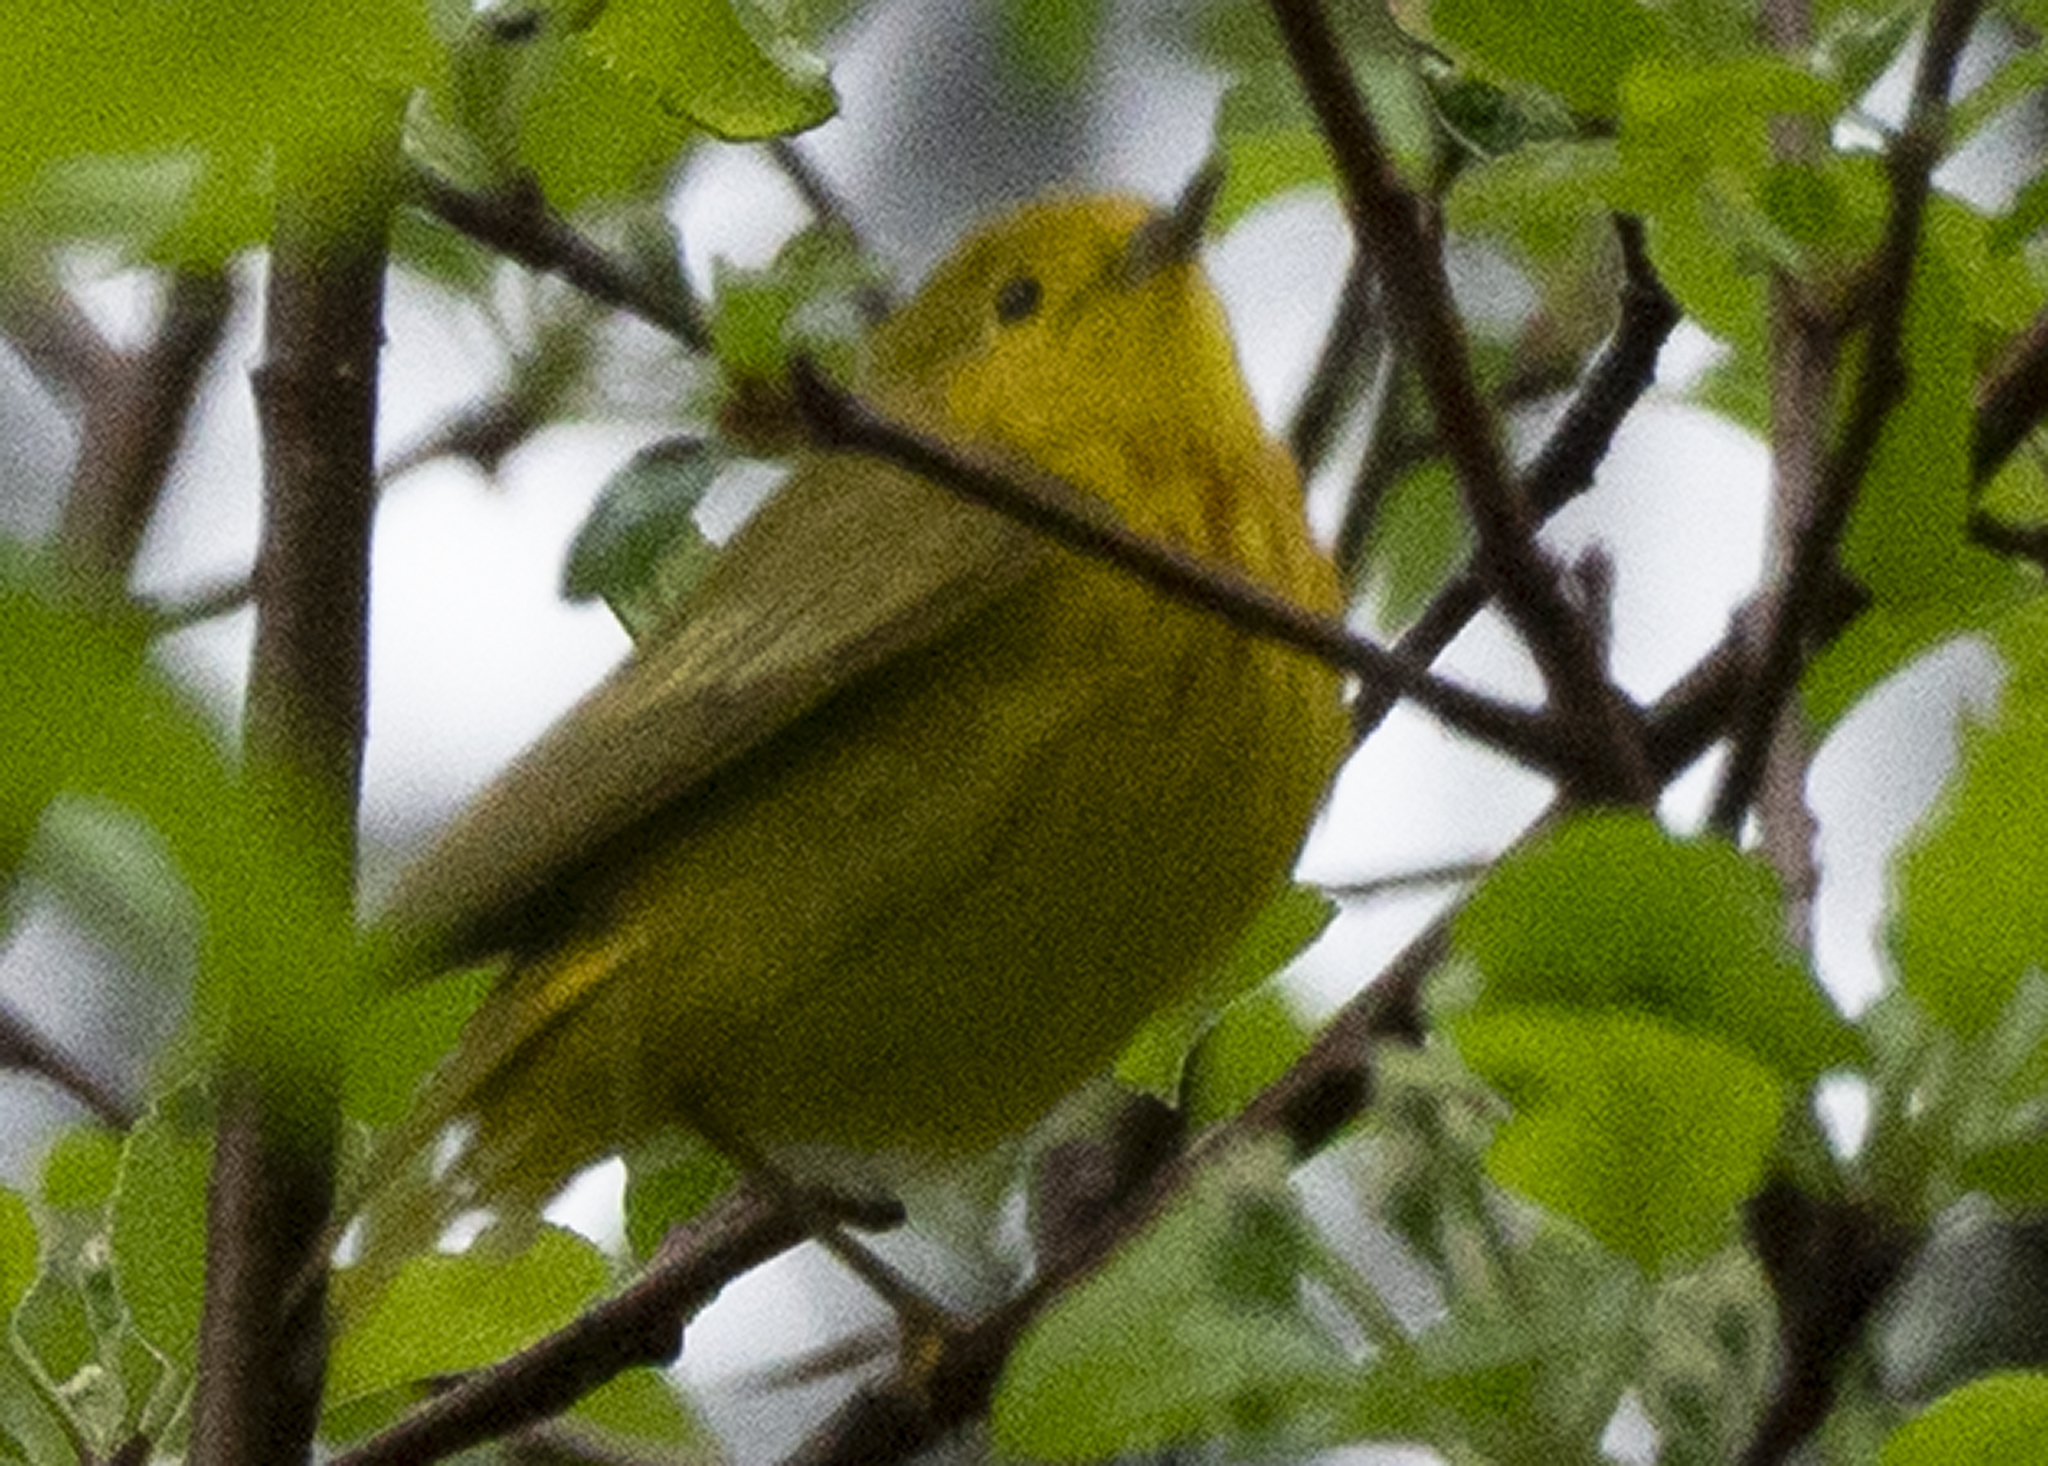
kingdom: Animalia
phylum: Chordata
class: Aves
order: Passeriformes
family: Parulidae
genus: Setophaga
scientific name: Setophaga petechia
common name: Yellow warbler
